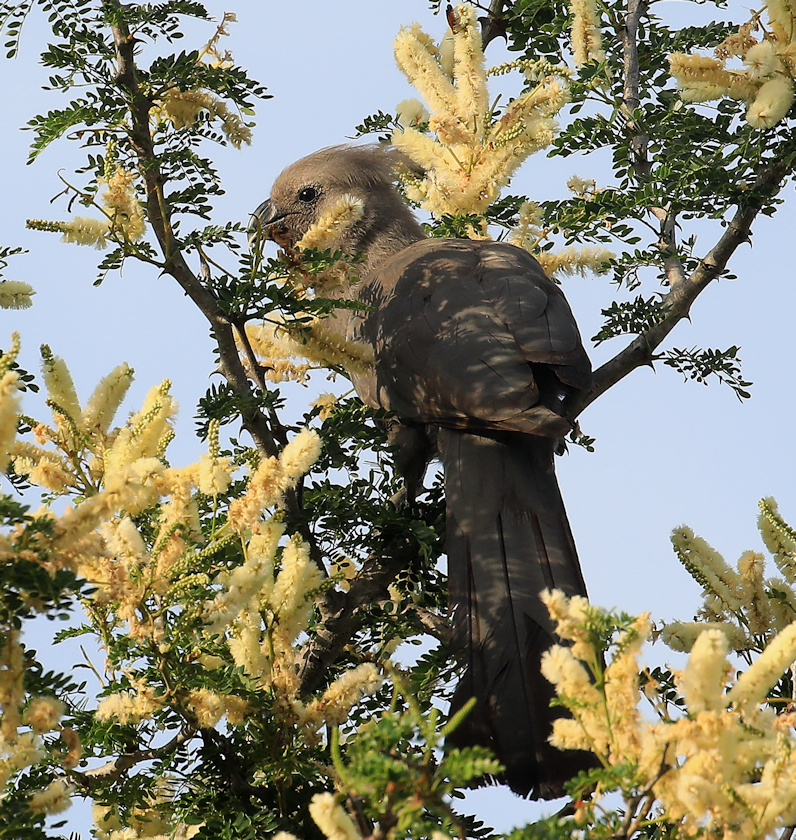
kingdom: Animalia
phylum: Chordata
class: Aves
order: Musophagiformes
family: Musophagidae
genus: Corythaixoides
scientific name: Corythaixoides concolor
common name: Grey go-away-bird
